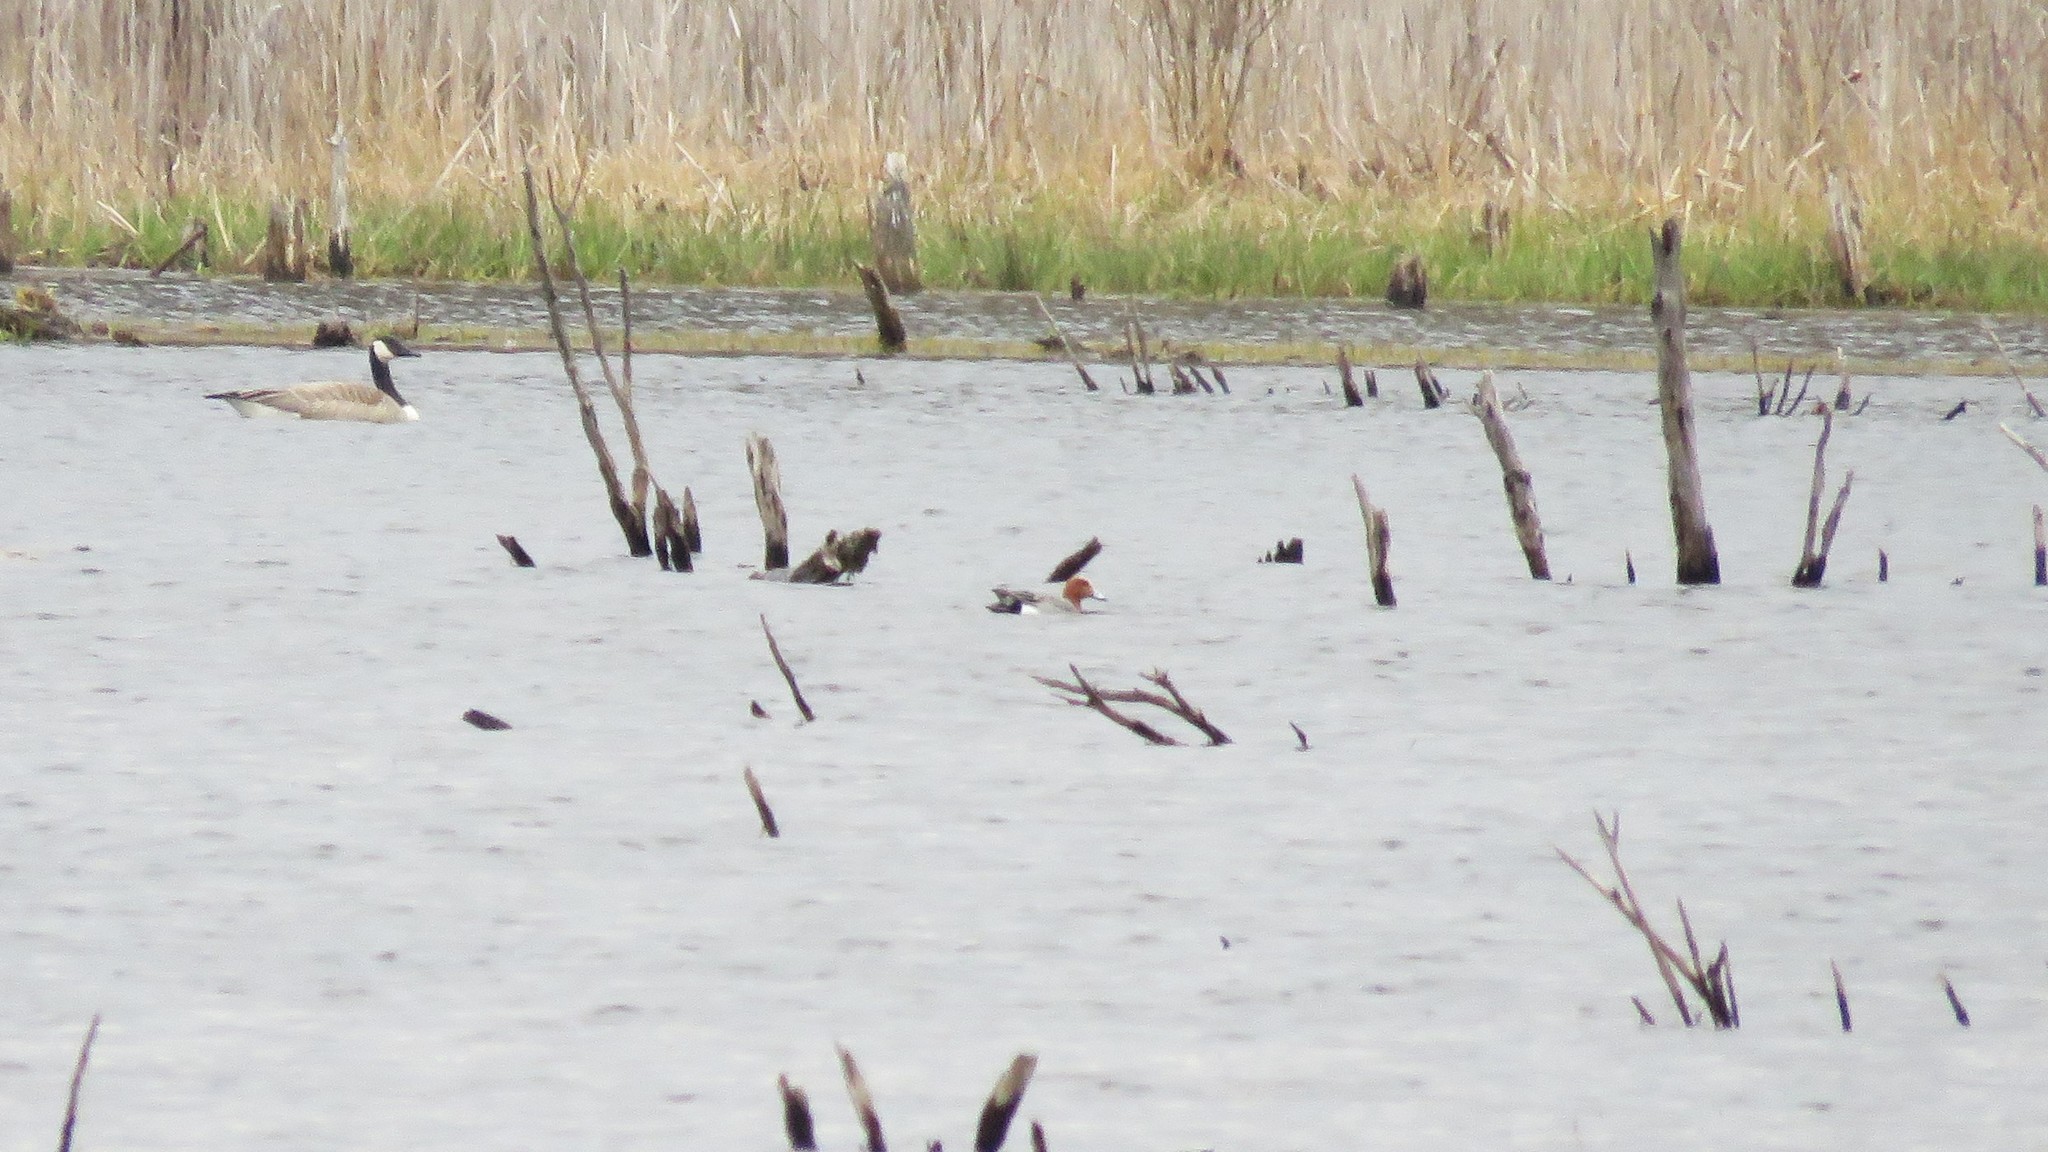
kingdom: Animalia
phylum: Chordata
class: Aves
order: Anseriformes
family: Anatidae
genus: Mareca
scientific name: Mareca penelope
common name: Eurasian wigeon
